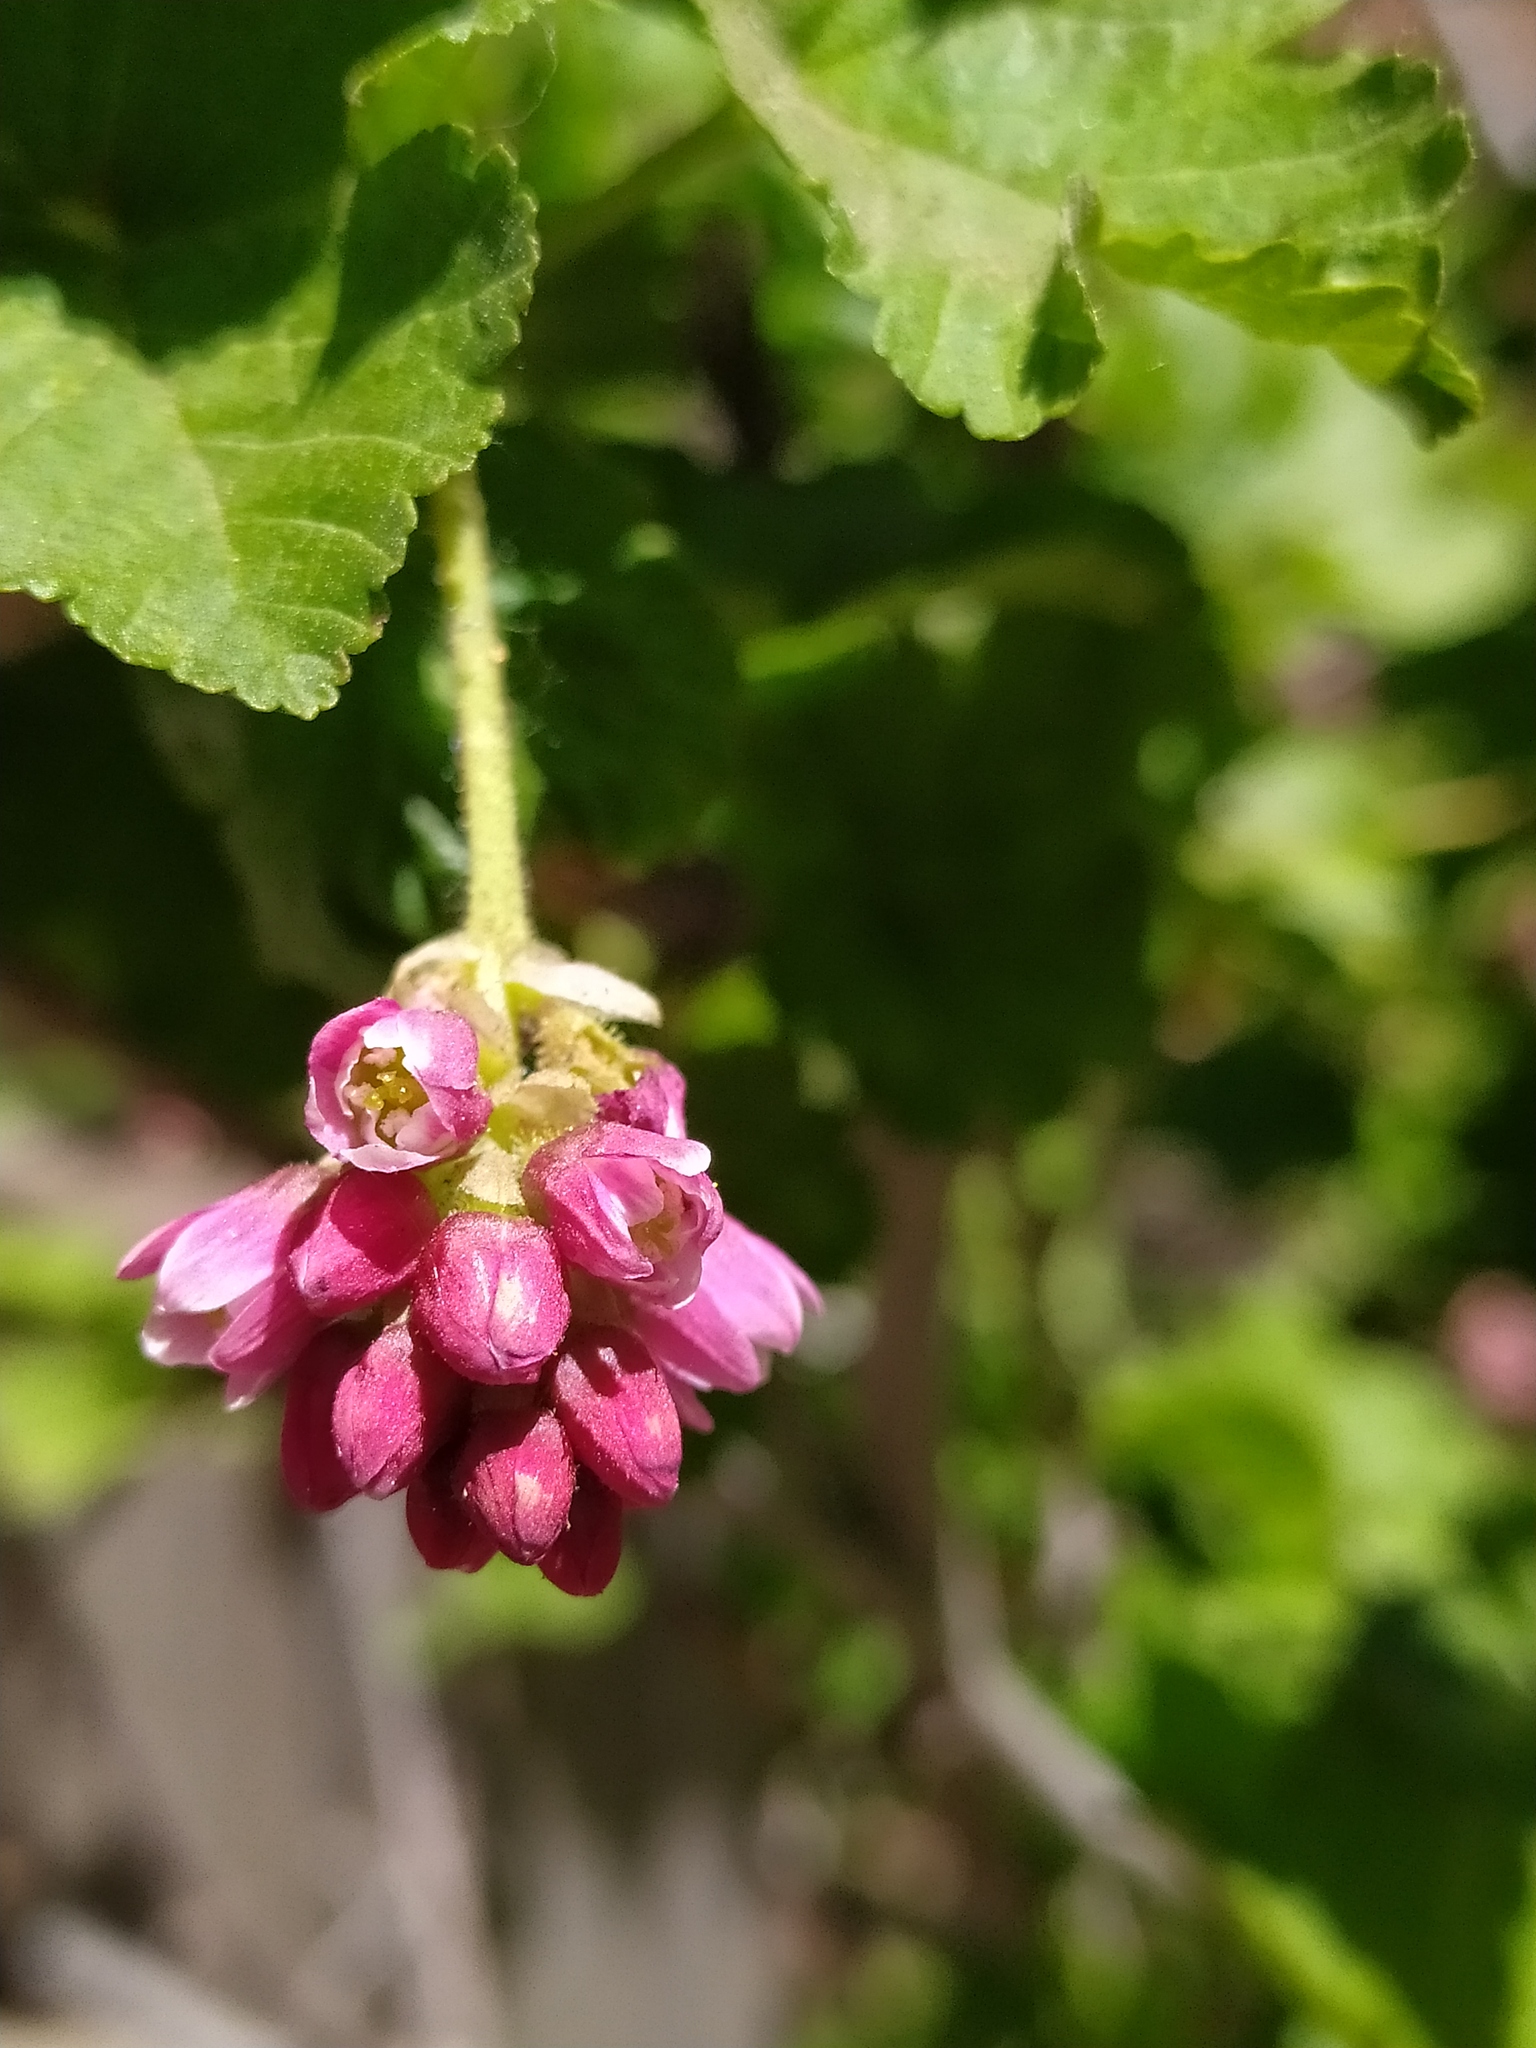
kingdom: Plantae
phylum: Tracheophyta
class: Magnoliopsida
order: Saxifragales
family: Grossulariaceae
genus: Ribes
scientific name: Ribes nevadense
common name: Mountain pink currant
